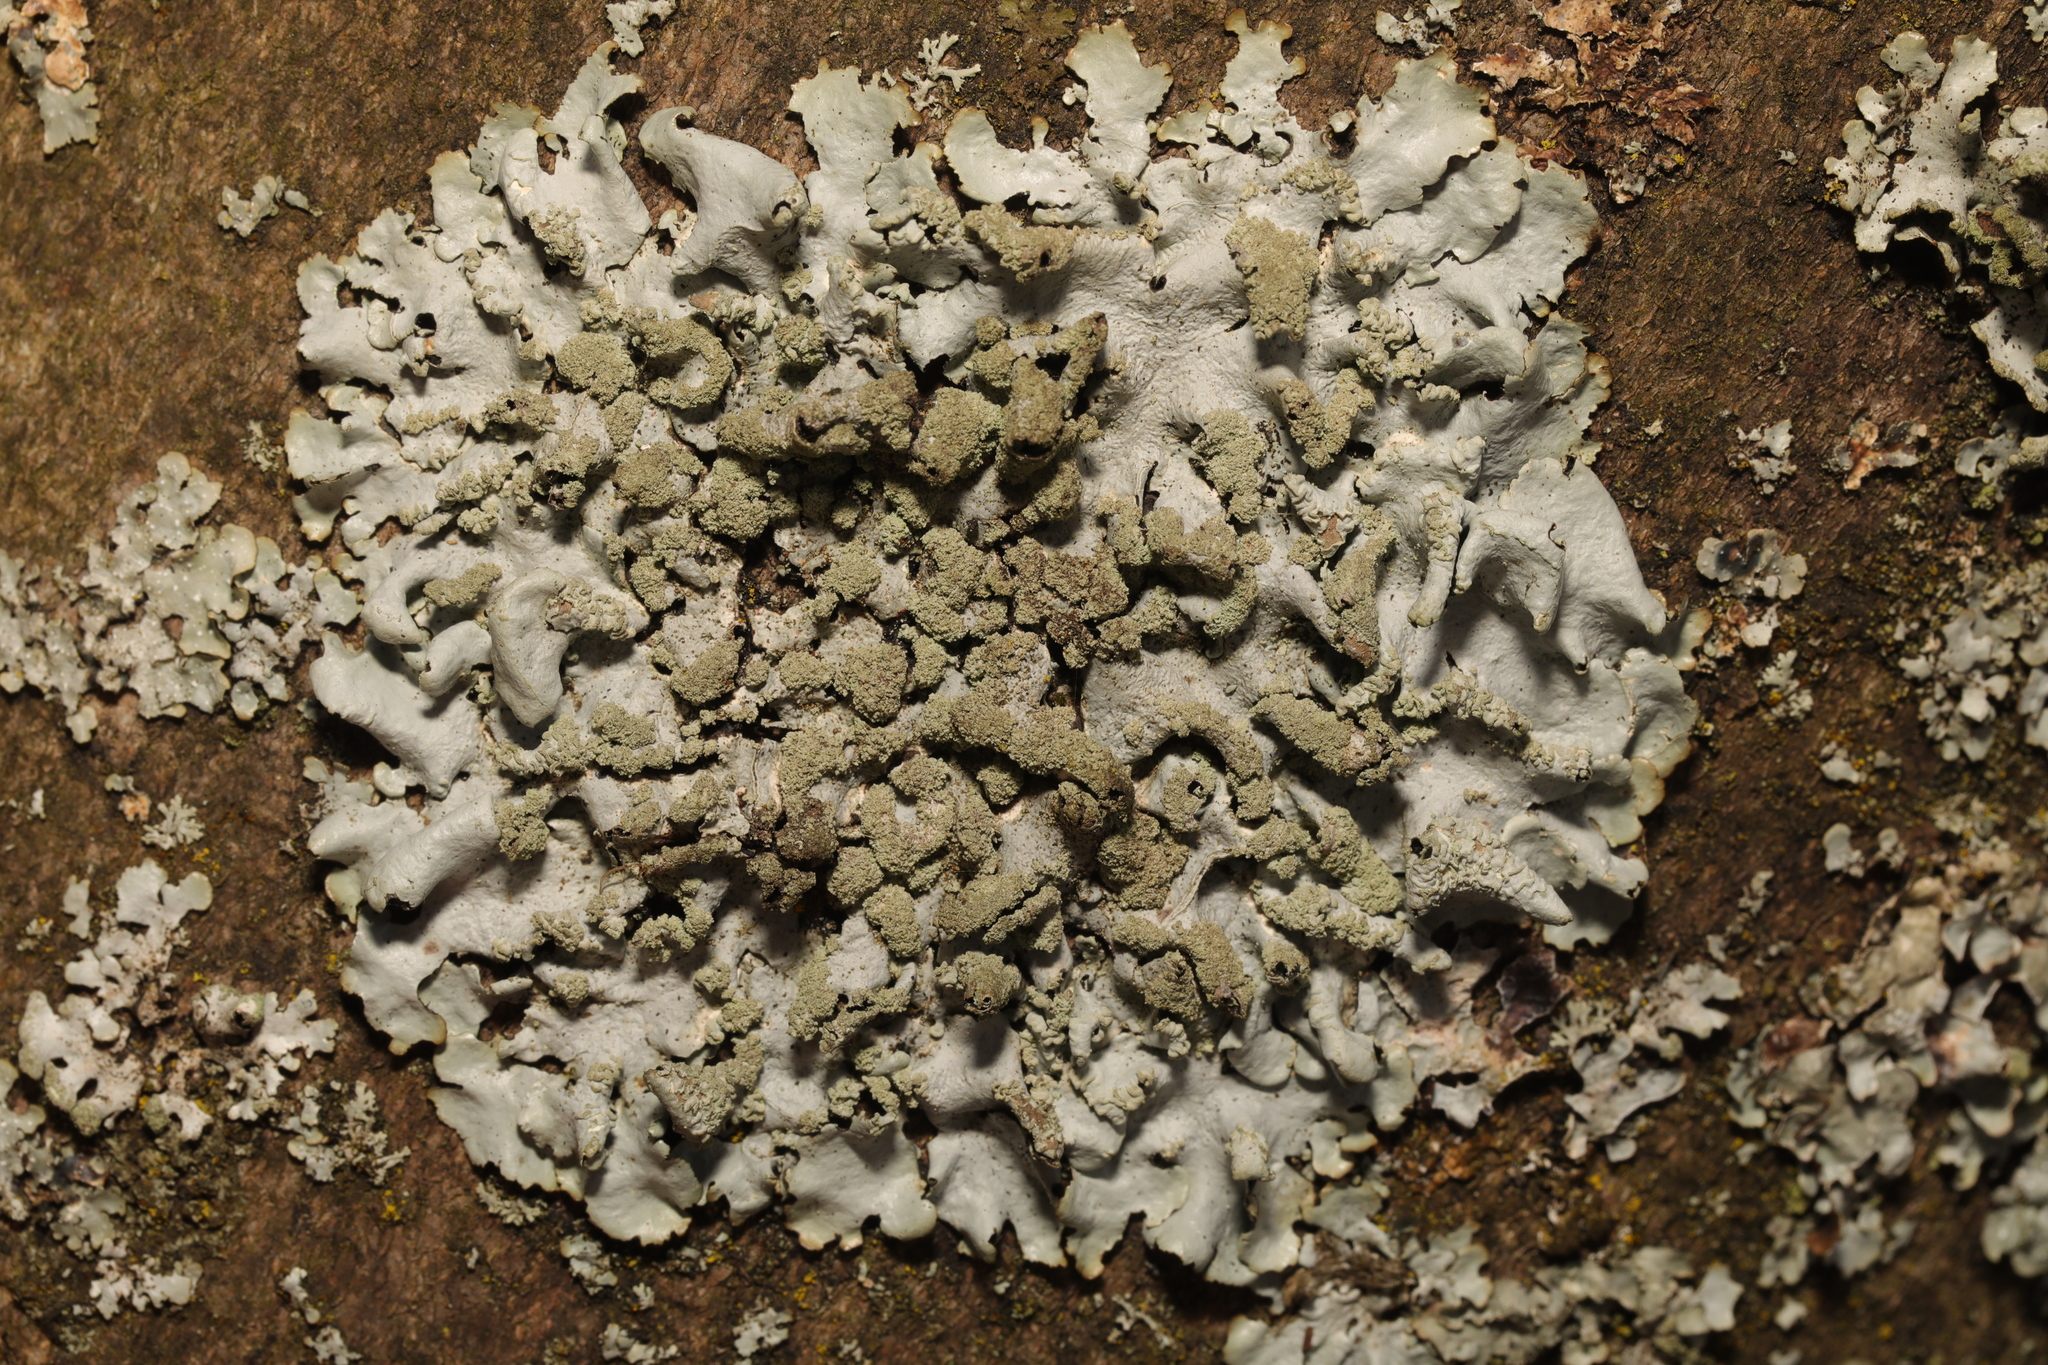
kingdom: Fungi
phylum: Ascomycota
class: Lecanoromycetes
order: Lecanorales
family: Parmeliaceae
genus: Hypotrachyna
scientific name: Hypotrachyna afrorevoluta
